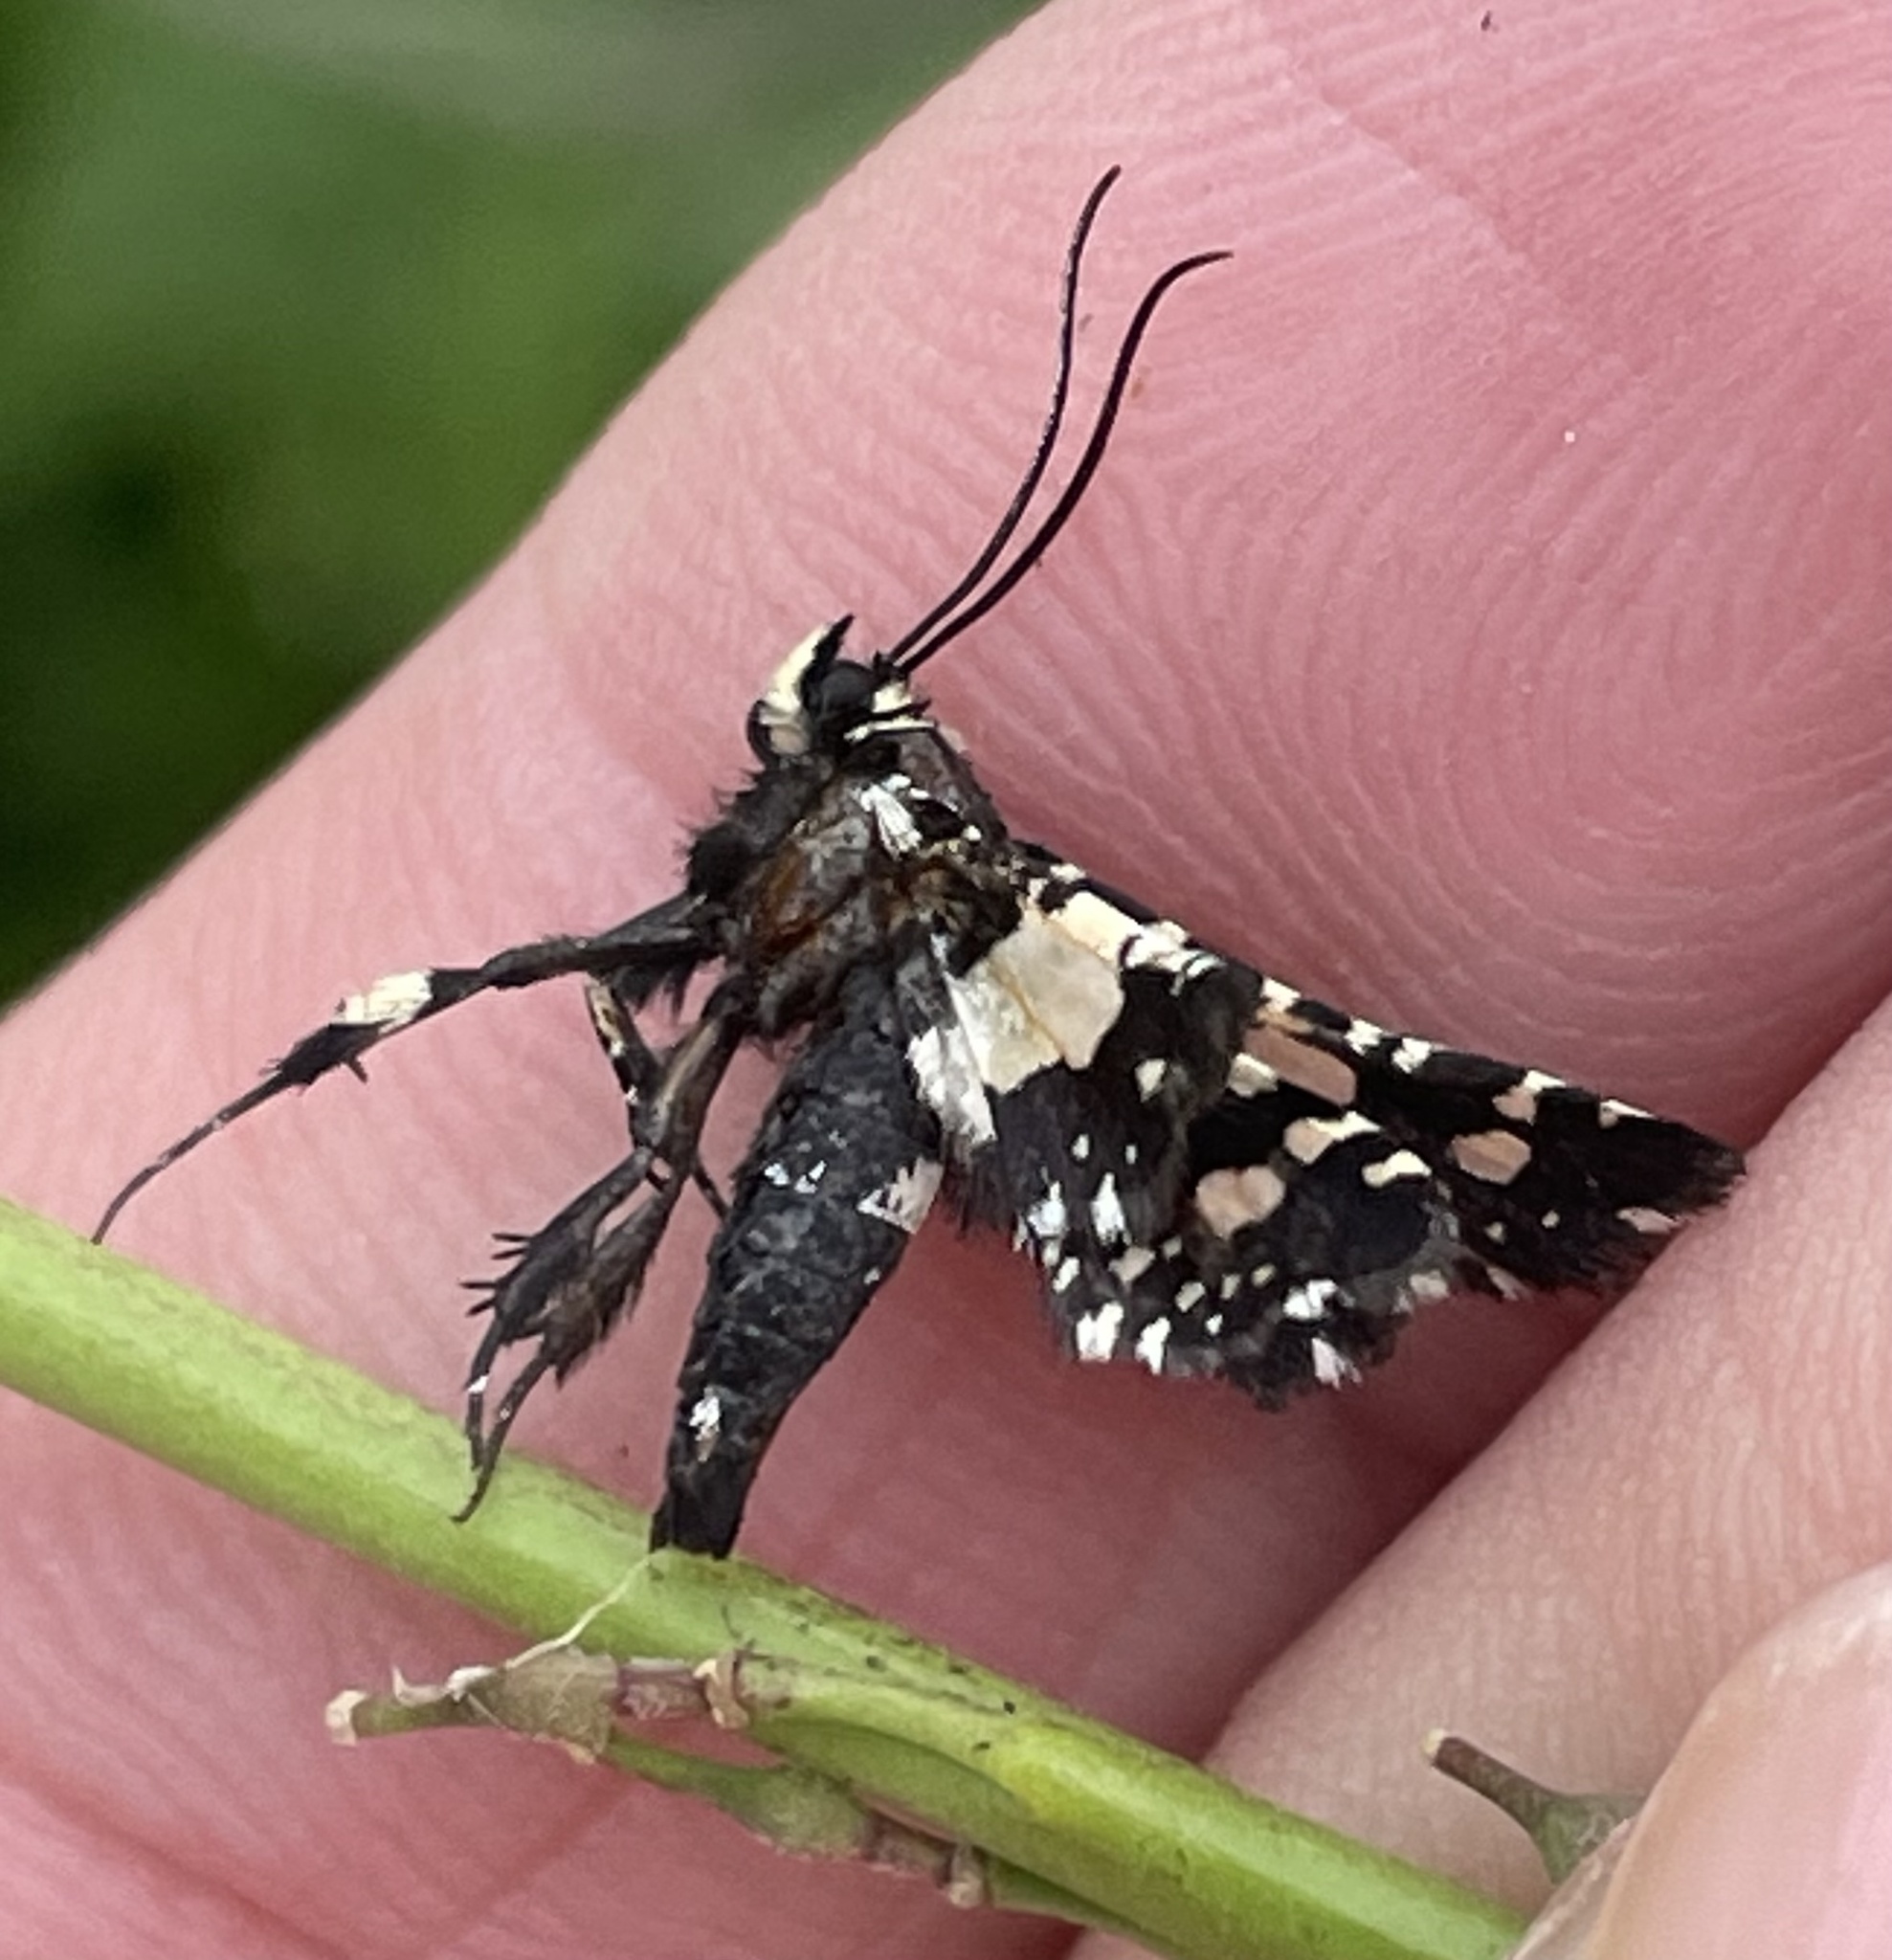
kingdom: Animalia
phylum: Arthropoda
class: Insecta
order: Lepidoptera
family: Thyrididae
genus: Pseudothyris
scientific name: Pseudothyris sepulchralis
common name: Mournful thyris moth
